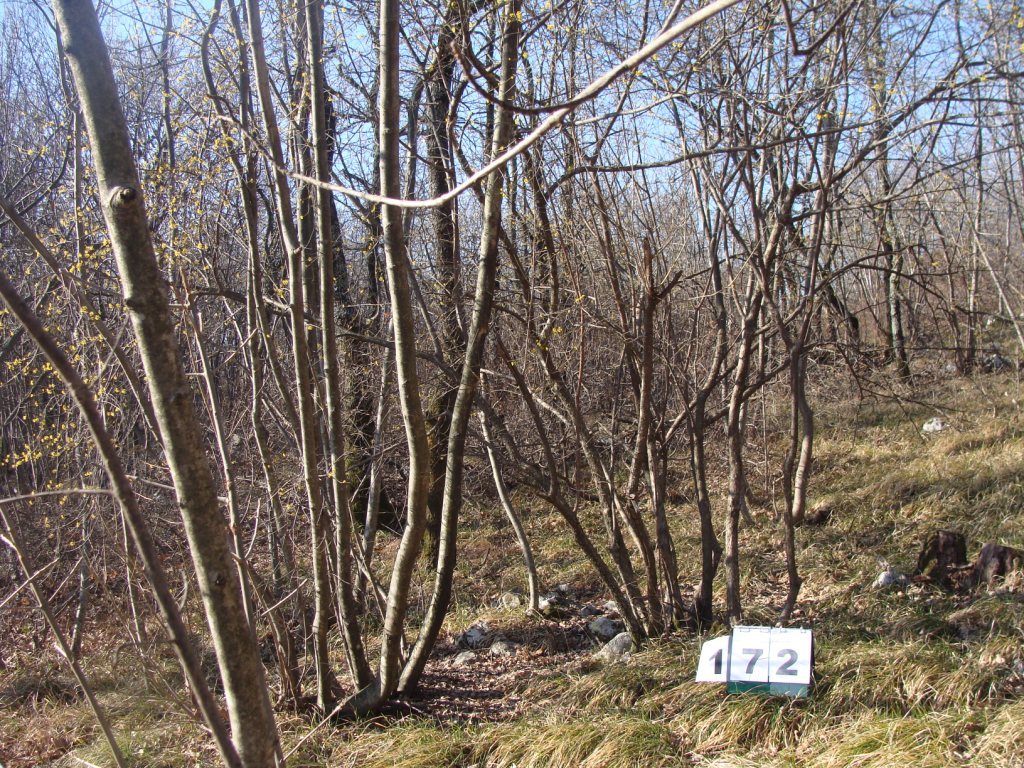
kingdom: Plantae
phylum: Tracheophyta
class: Magnoliopsida
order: Cornales
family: Cornaceae
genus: Cornus
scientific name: Cornus mas
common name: Cornelian-cherry
